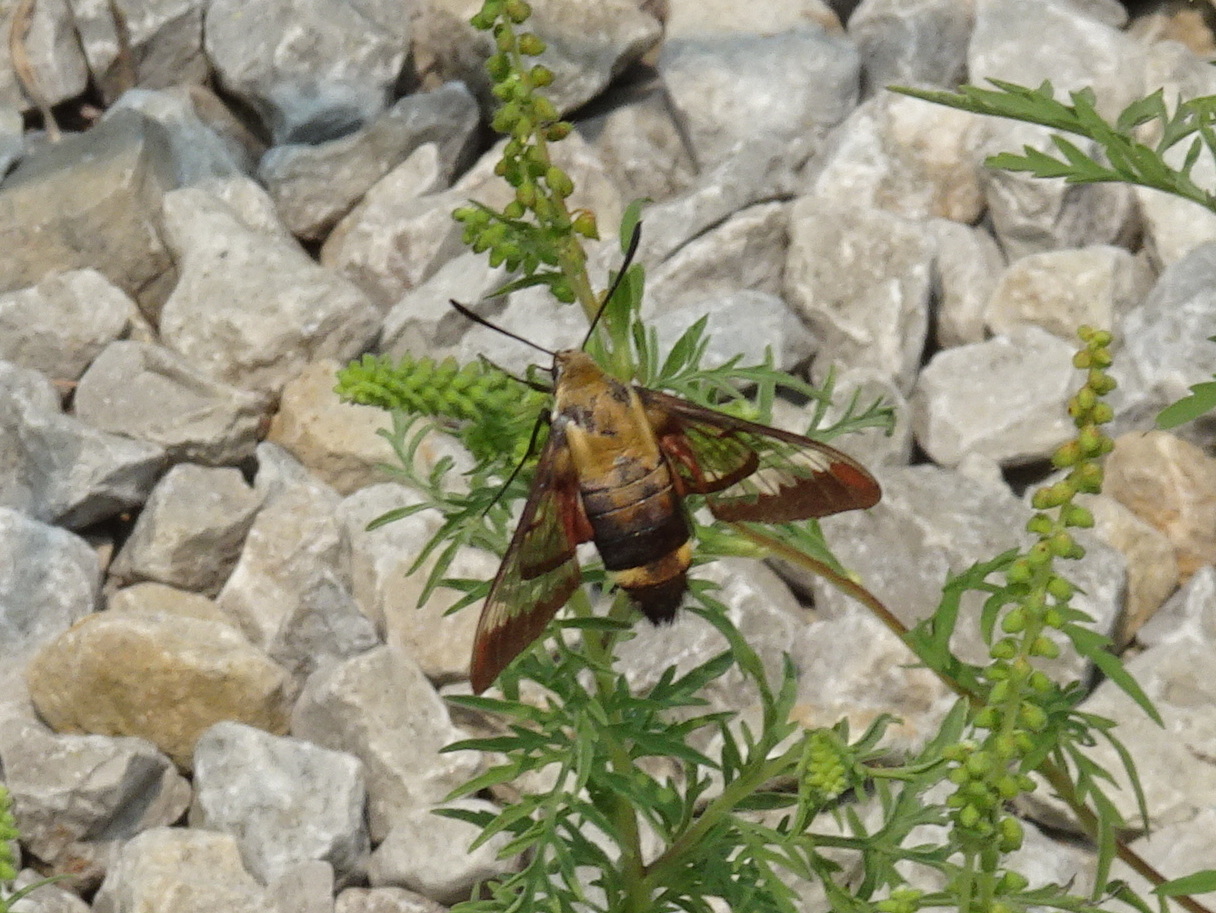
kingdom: Animalia
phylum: Arthropoda
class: Insecta
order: Lepidoptera
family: Sphingidae
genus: Hemaris
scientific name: Hemaris diffinis
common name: Bumblebee moth
